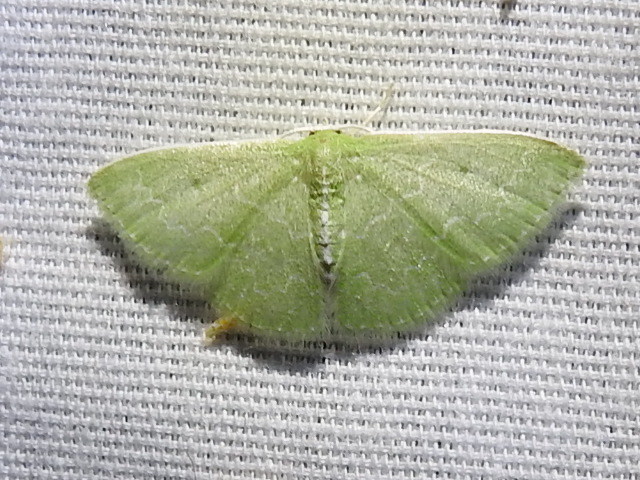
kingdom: Animalia
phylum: Arthropoda
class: Insecta
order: Lepidoptera
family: Geometridae
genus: Synchlora
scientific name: Synchlora frondaria
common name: Southern emerald
